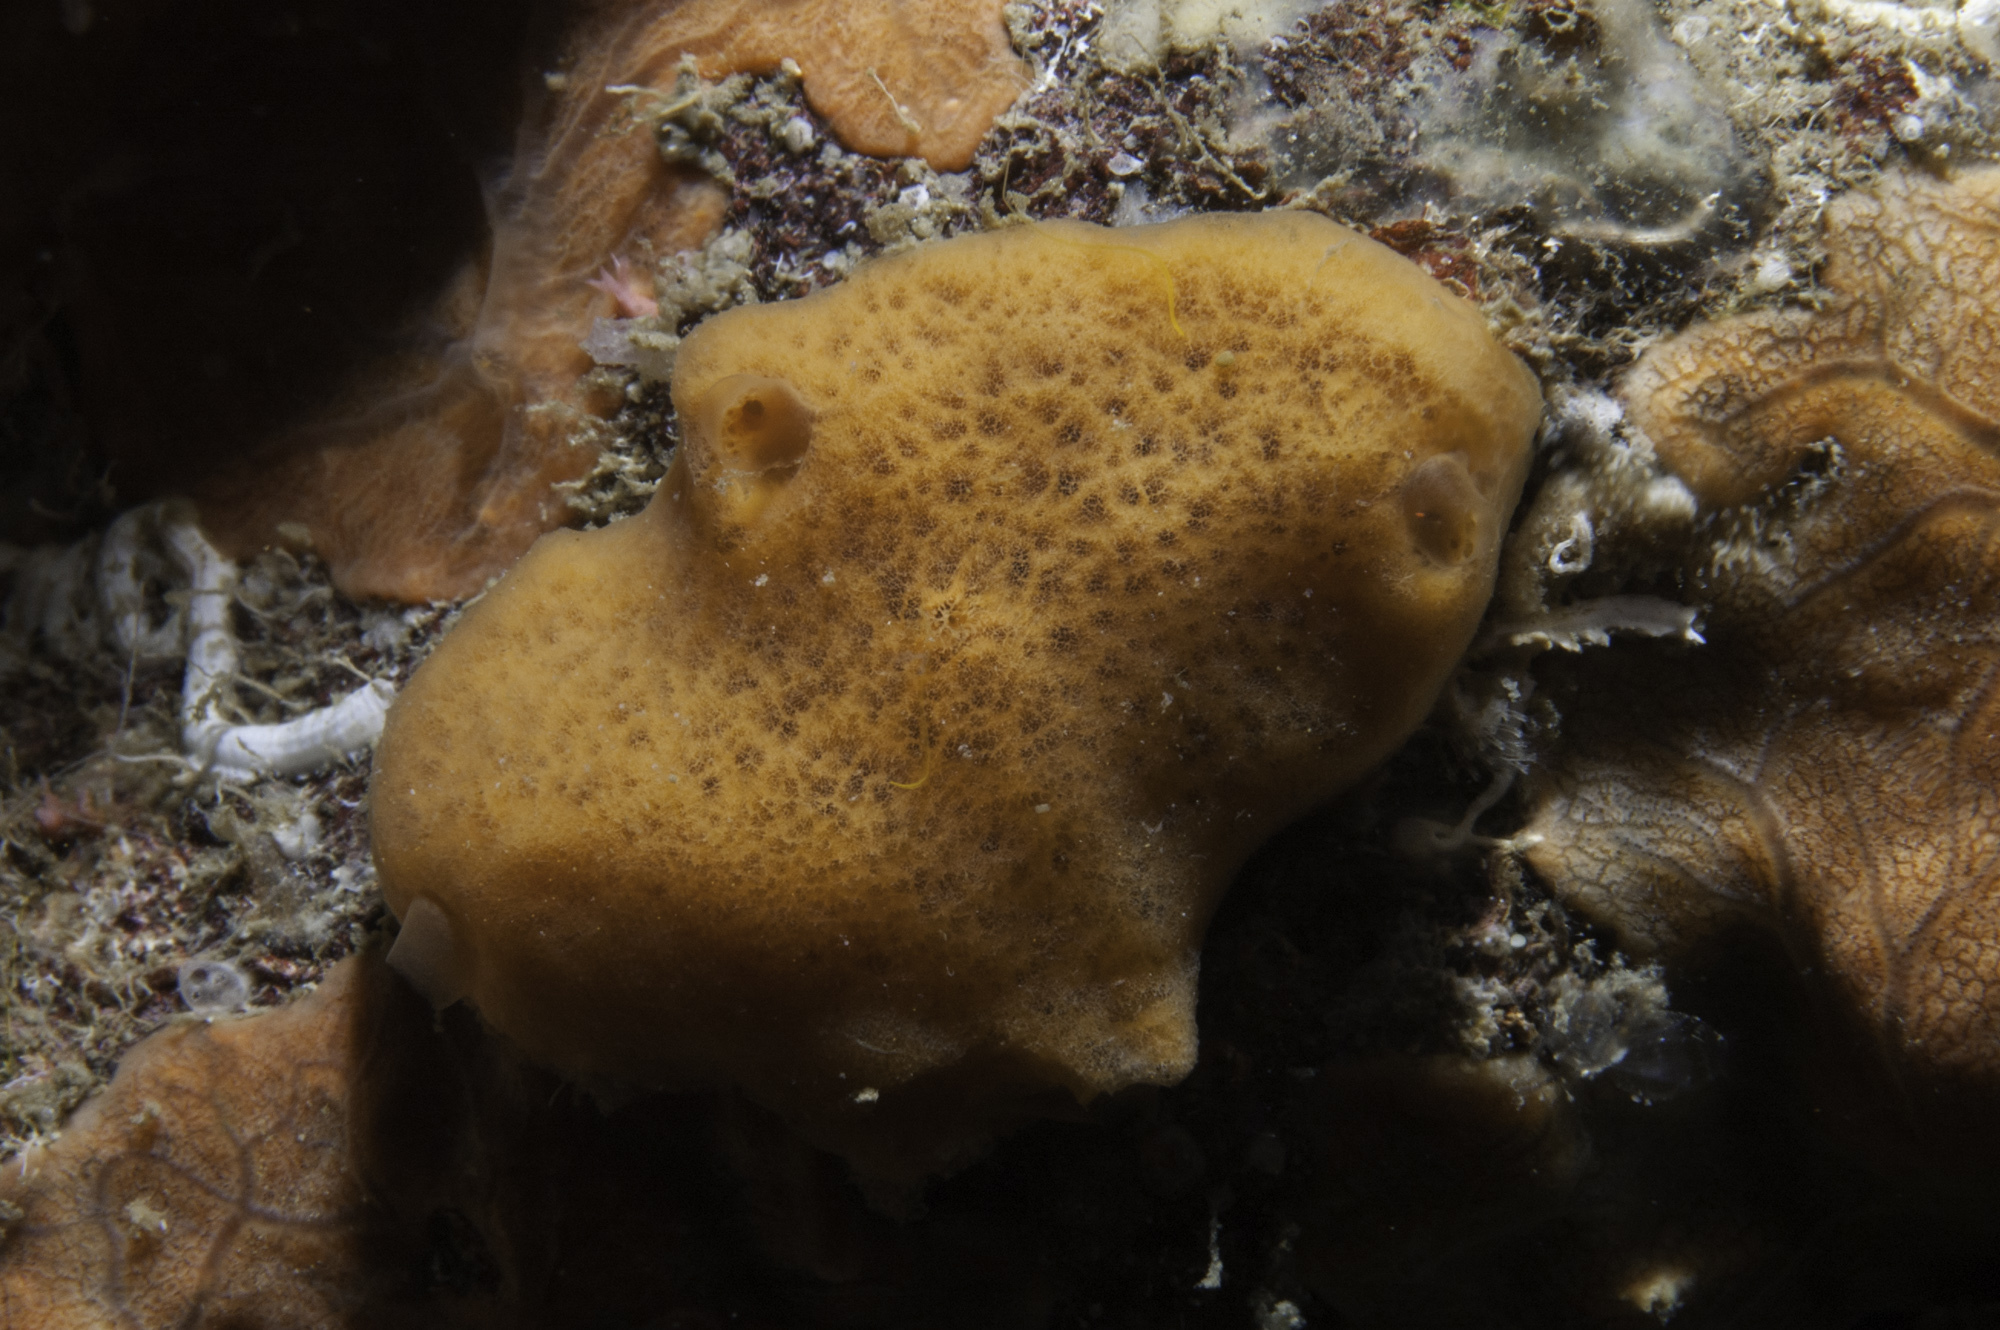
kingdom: Animalia
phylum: Porifera
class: Demospongiae
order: Haplosclerida
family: Chalinidae
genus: Haliclona
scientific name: Haliclona fulva
